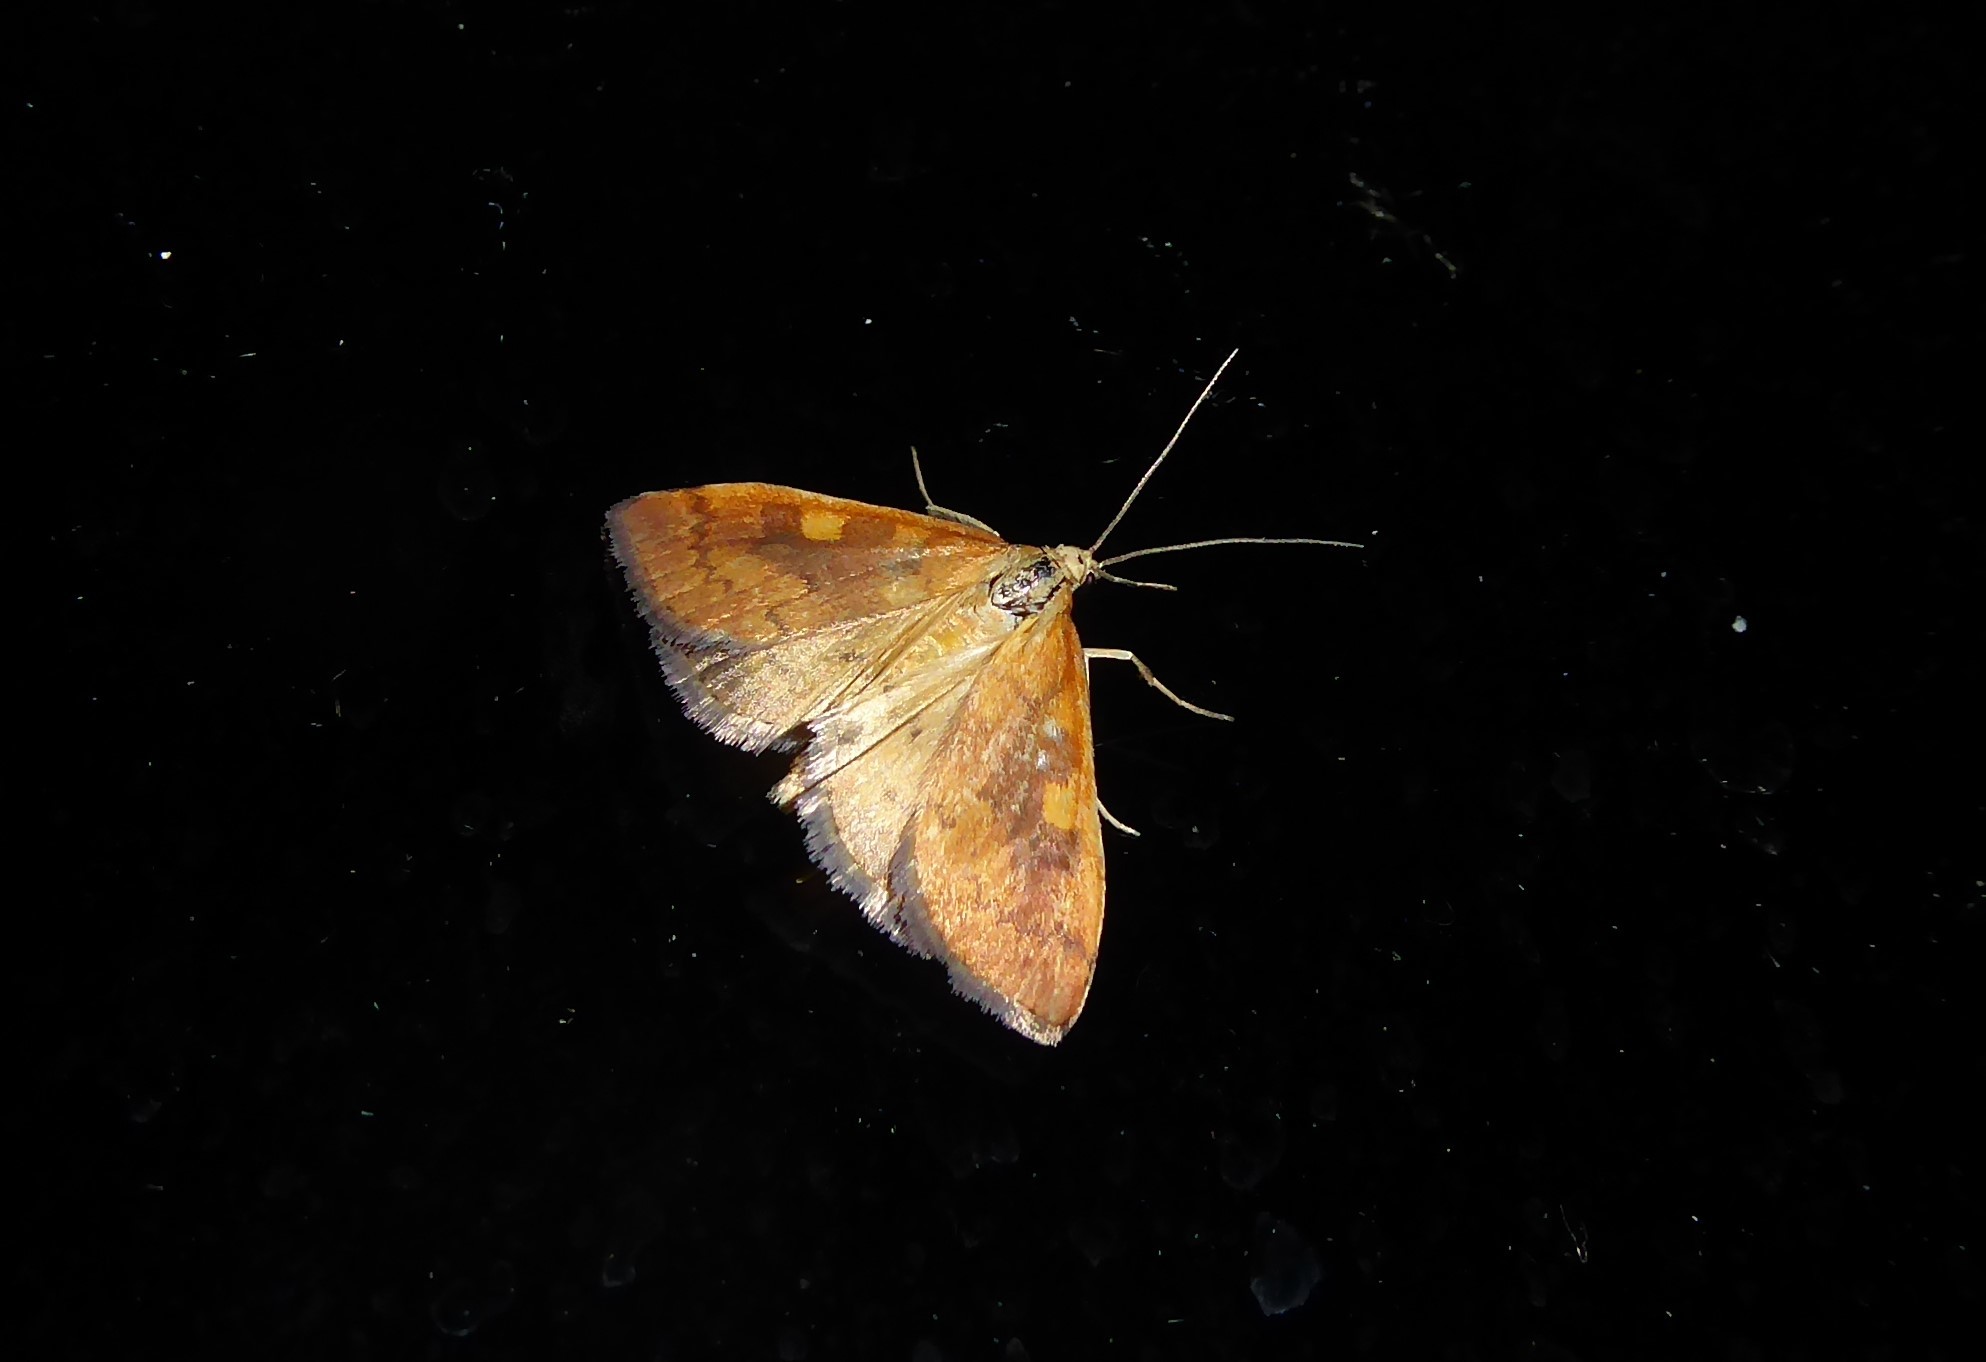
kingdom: Animalia
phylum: Arthropoda
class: Insecta
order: Lepidoptera
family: Crambidae
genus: Udea
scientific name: Udea Mnesictena flavidalis
